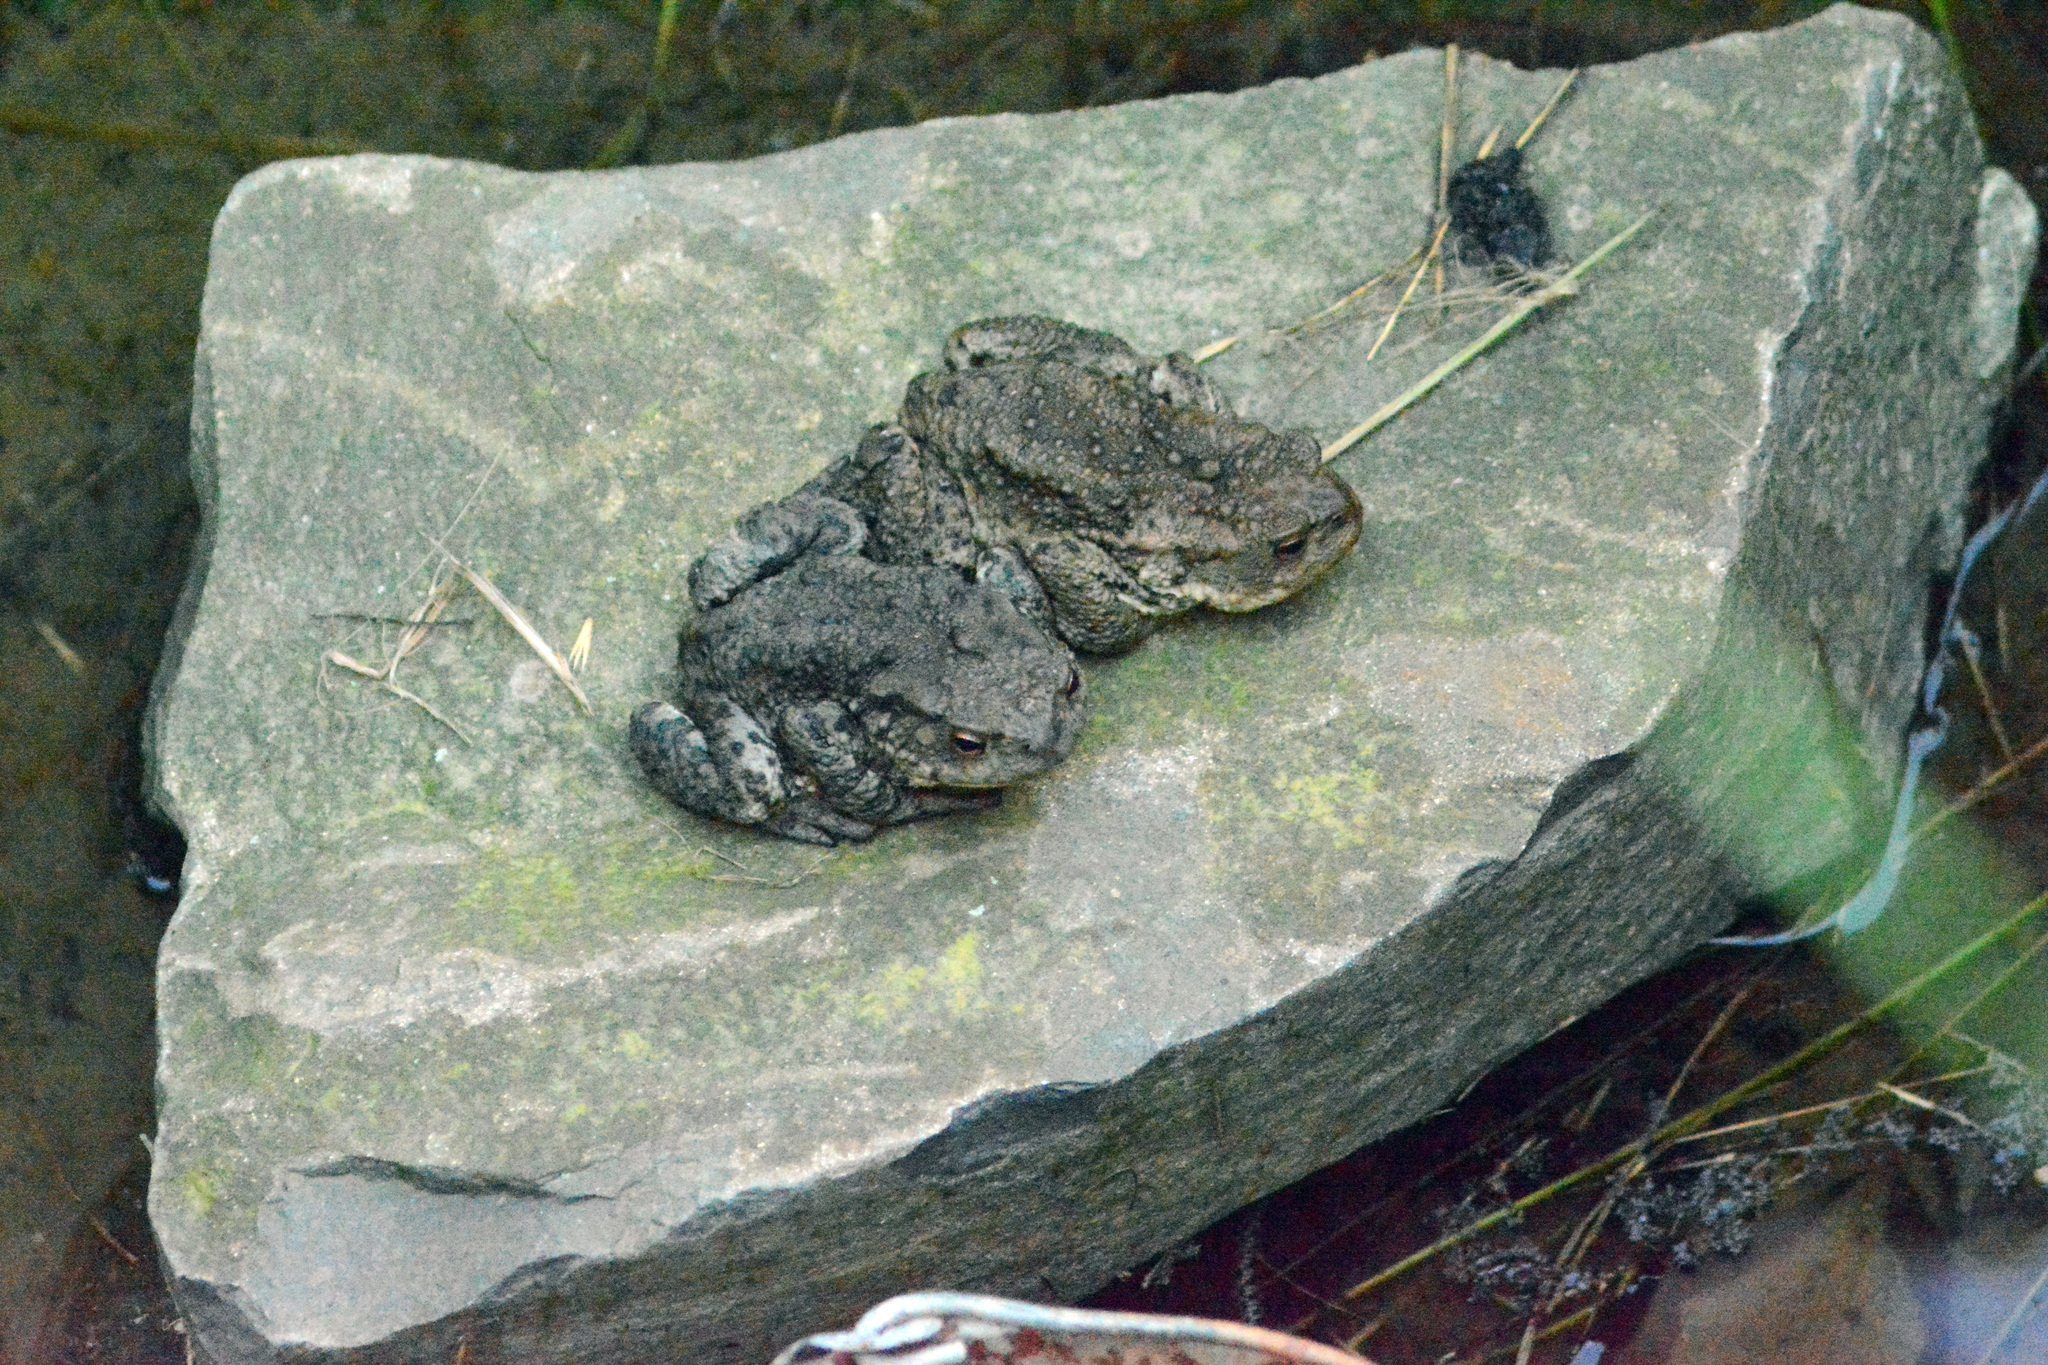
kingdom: Animalia
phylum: Chordata
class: Amphibia
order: Anura
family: Bufonidae
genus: Bufo
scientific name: Bufo bufo
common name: Common toad
